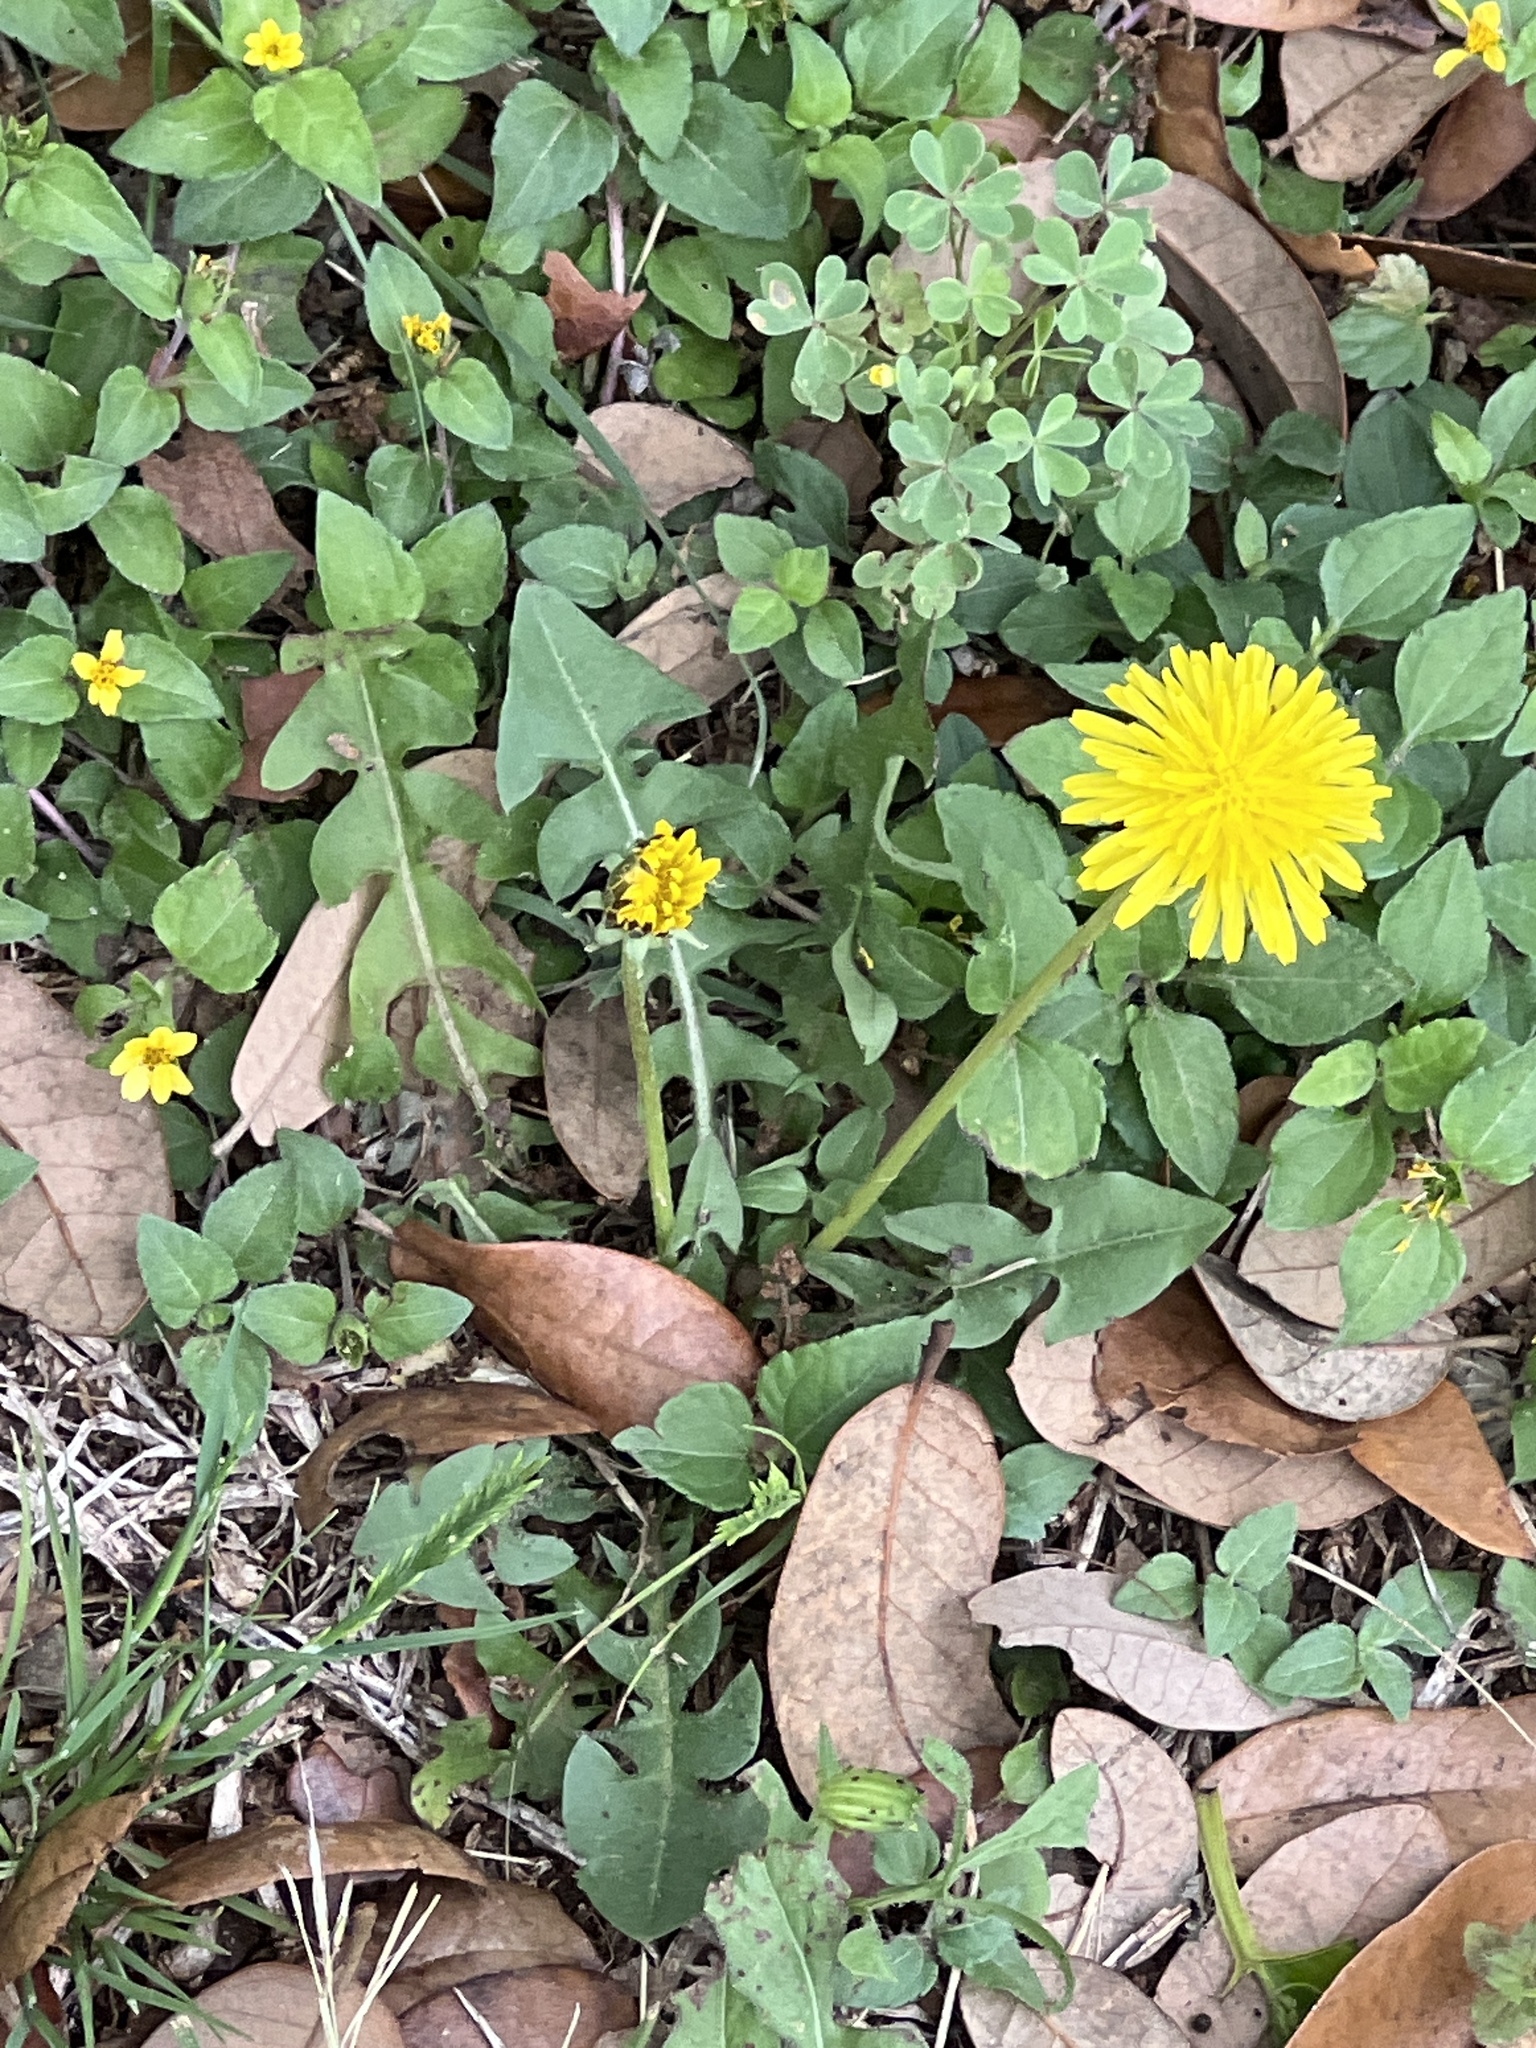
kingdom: Plantae
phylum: Tracheophyta
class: Magnoliopsida
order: Asterales
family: Asteraceae
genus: Taraxacum
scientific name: Taraxacum officinale
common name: Common dandelion
